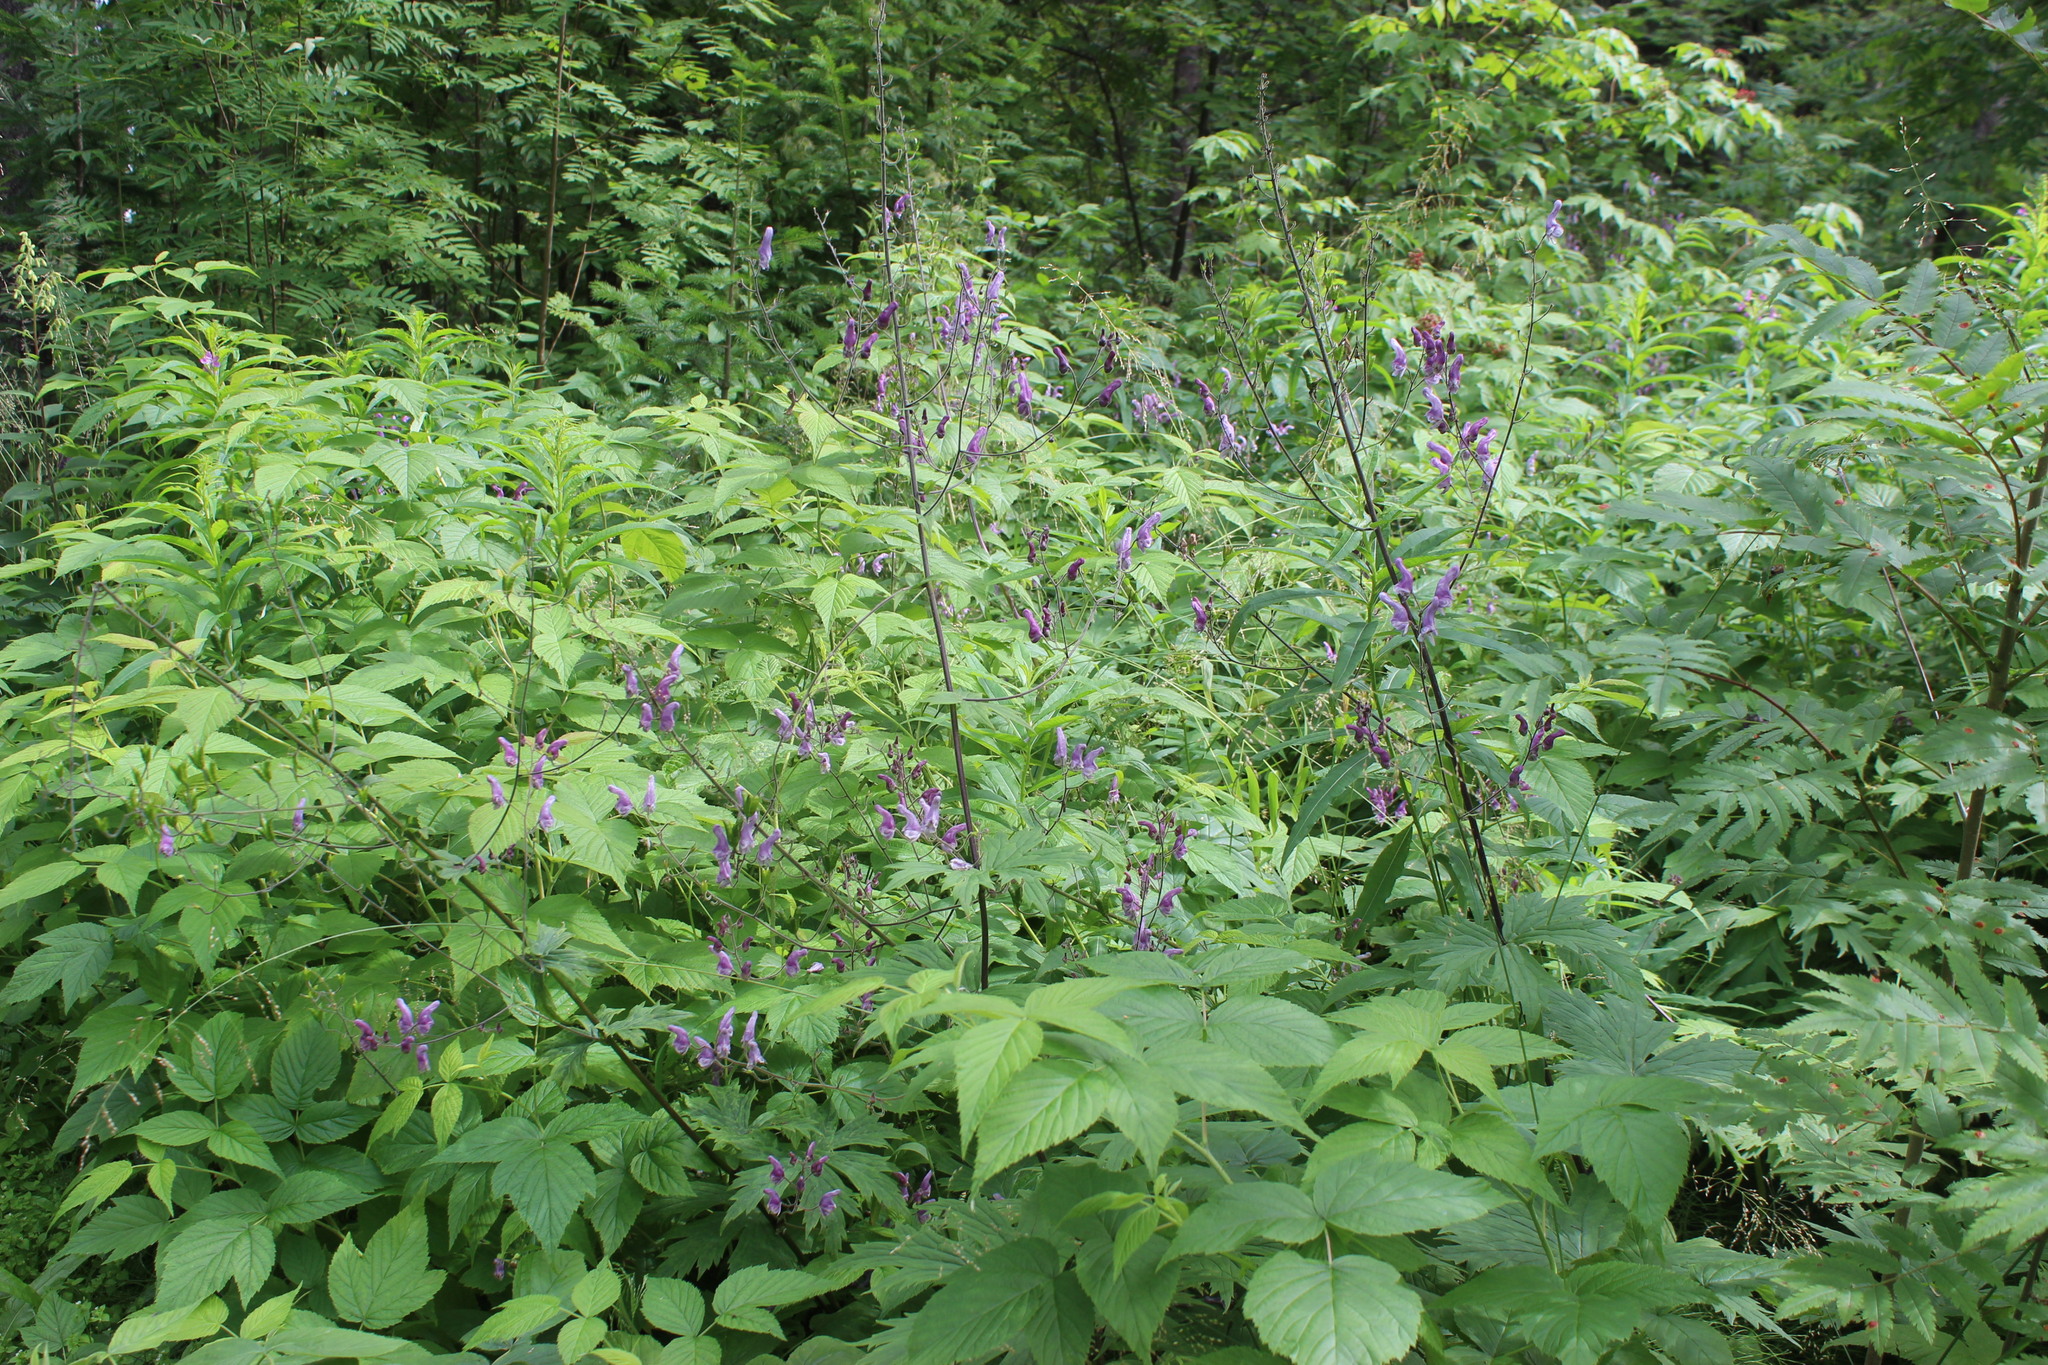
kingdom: Plantae
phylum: Tracheophyta
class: Magnoliopsida
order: Ranunculales
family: Ranunculaceae
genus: Aconitum
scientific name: Aconitum septentrionale
